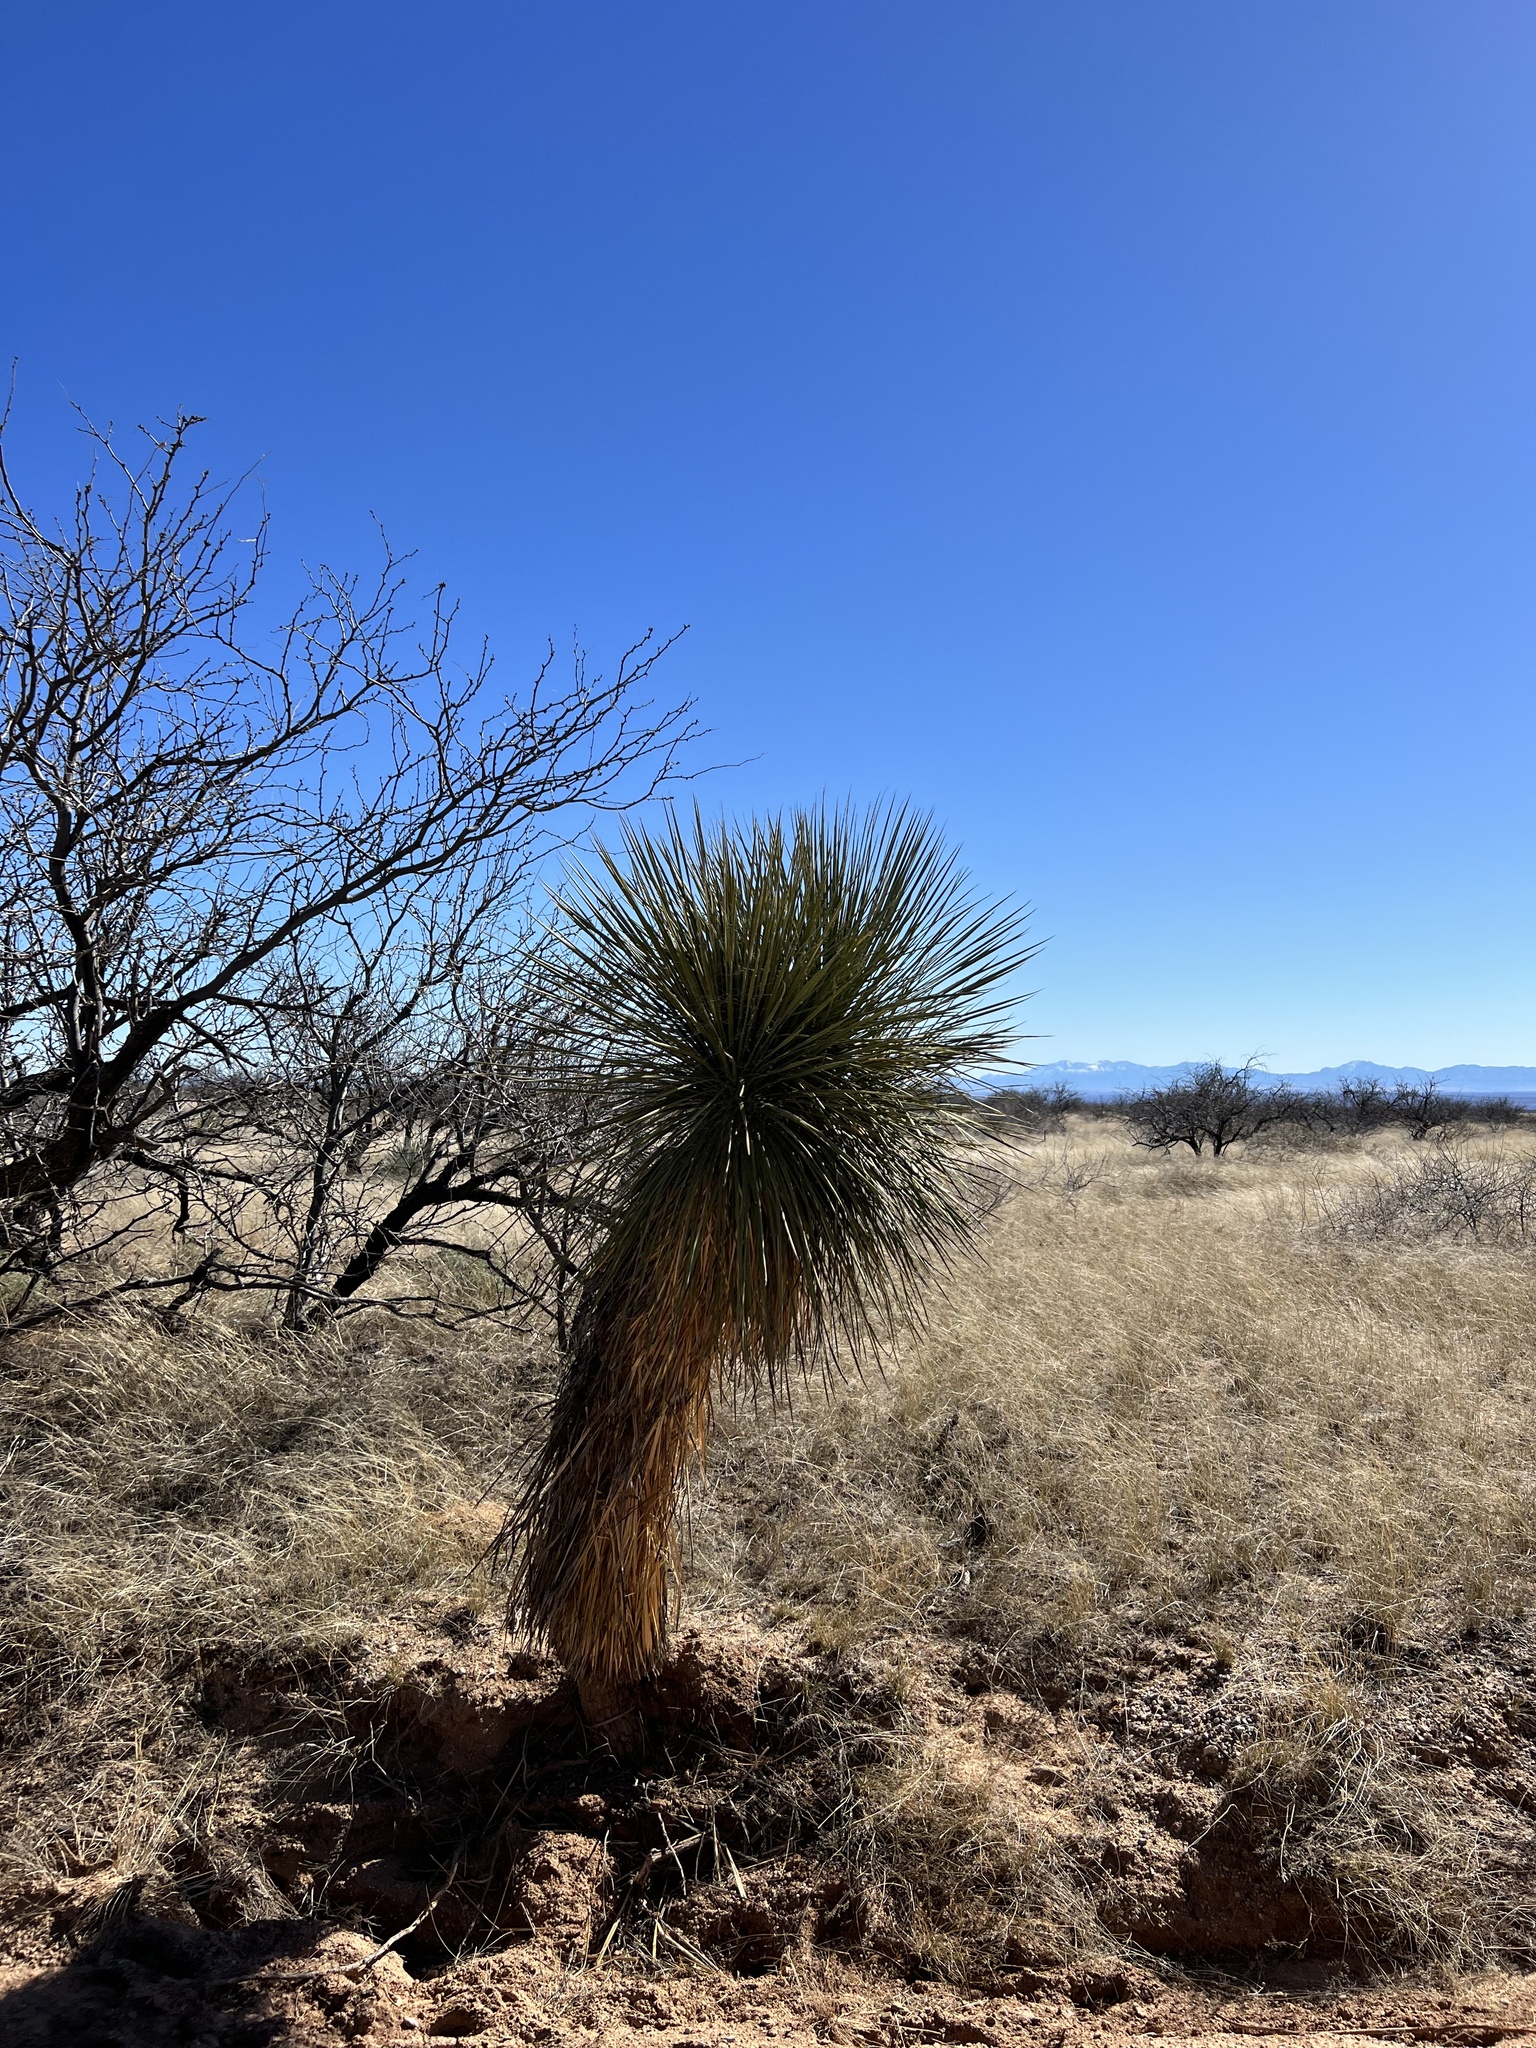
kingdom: Plantae
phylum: Tracheophyta
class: Liliopsida
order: Asparagales
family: Asparagaceae
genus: Yucca
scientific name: Yucca elata
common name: Palmella
